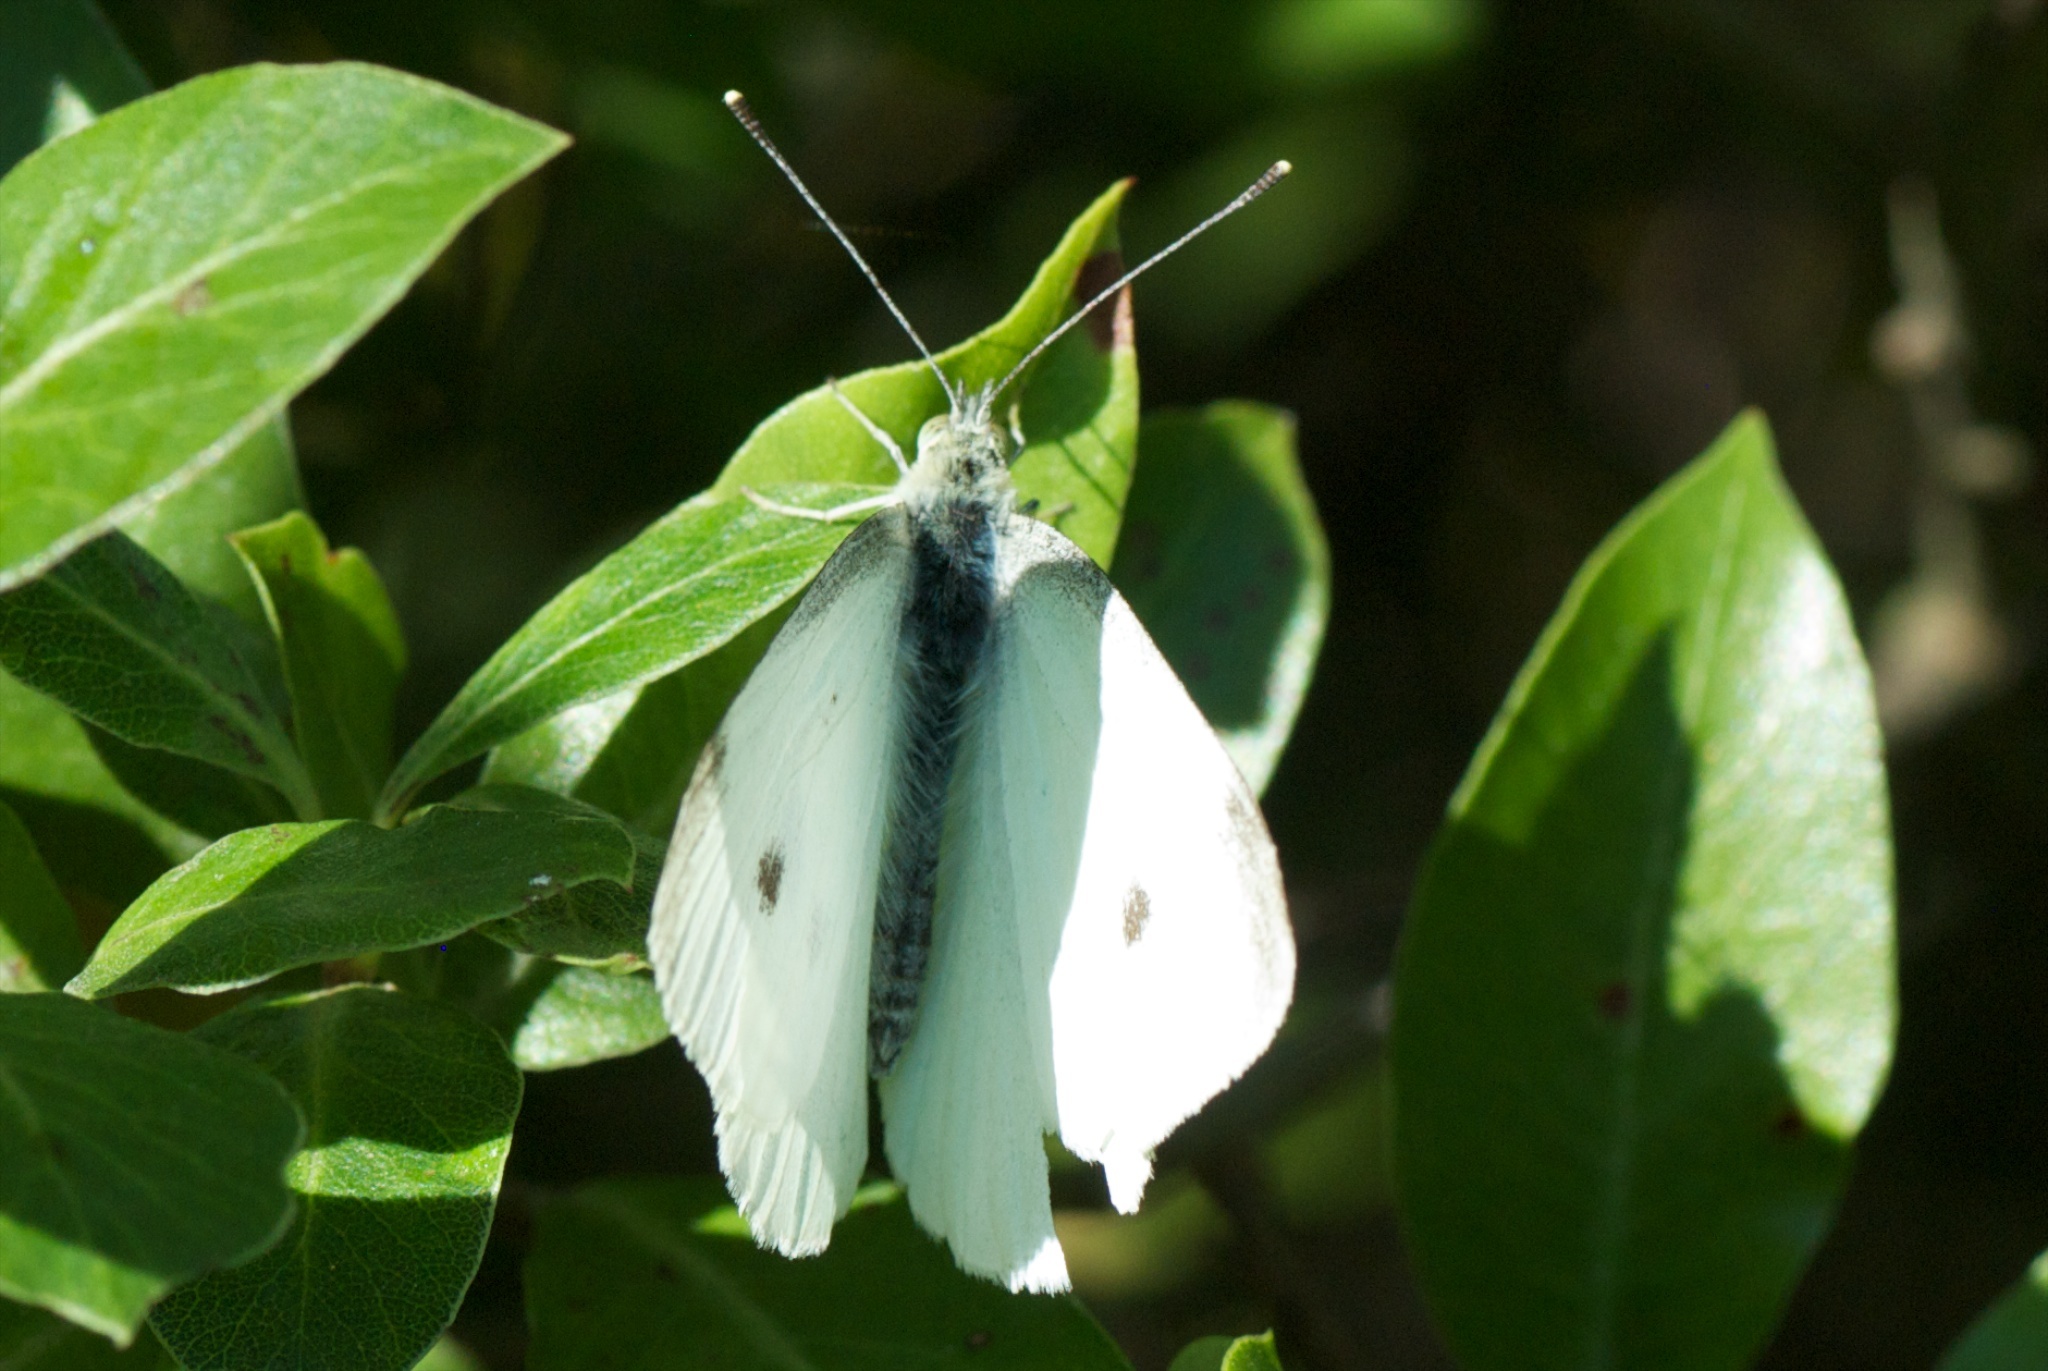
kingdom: Animalia
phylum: Arthropoda
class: Insecta
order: Lepidoptera
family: Pieridae
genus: Pieris
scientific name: Pieris rapae
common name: Small white
